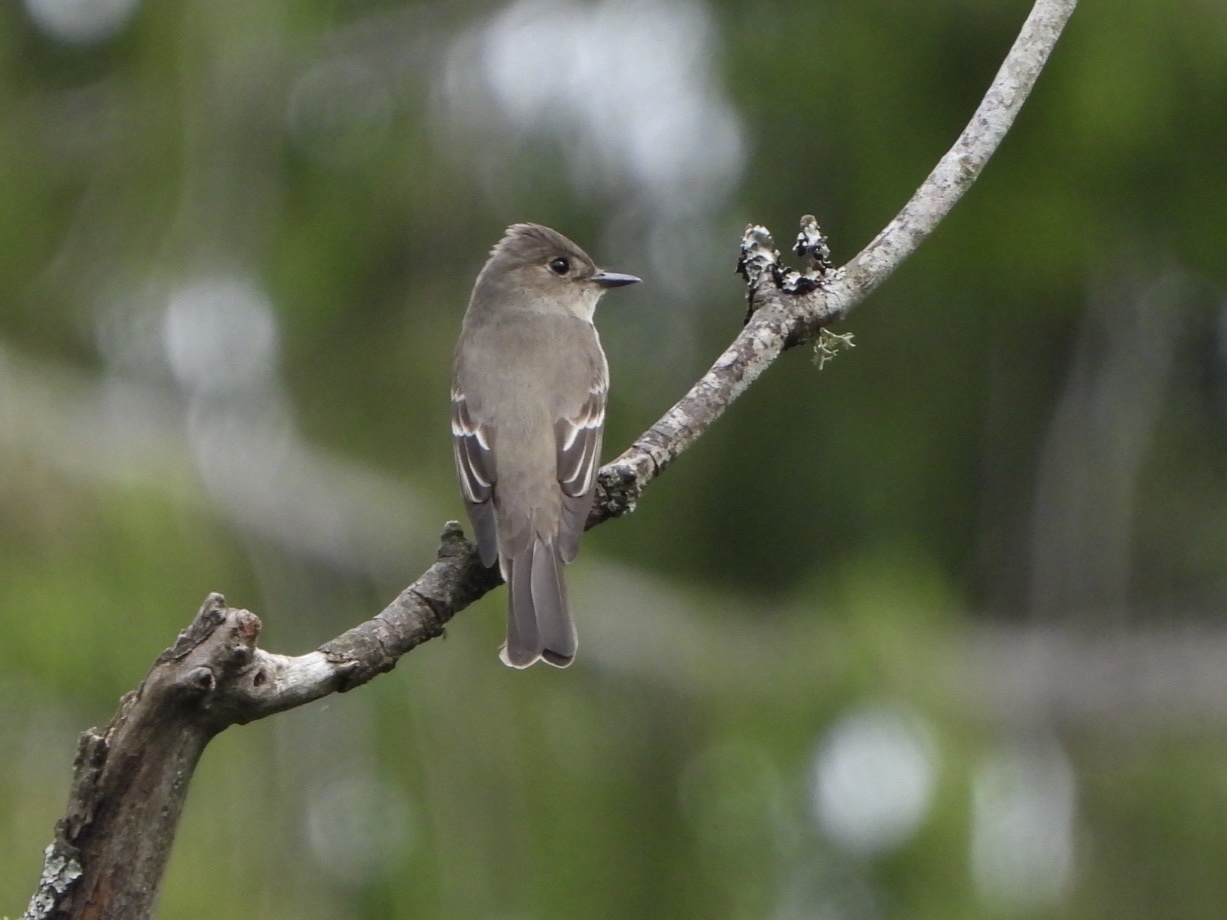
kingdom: Animalia
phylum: Chordata
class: Aves
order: Passeriformes
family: Tyrannidae
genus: Contopus
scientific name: Contopus sordidulus
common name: Western wood-pewee
